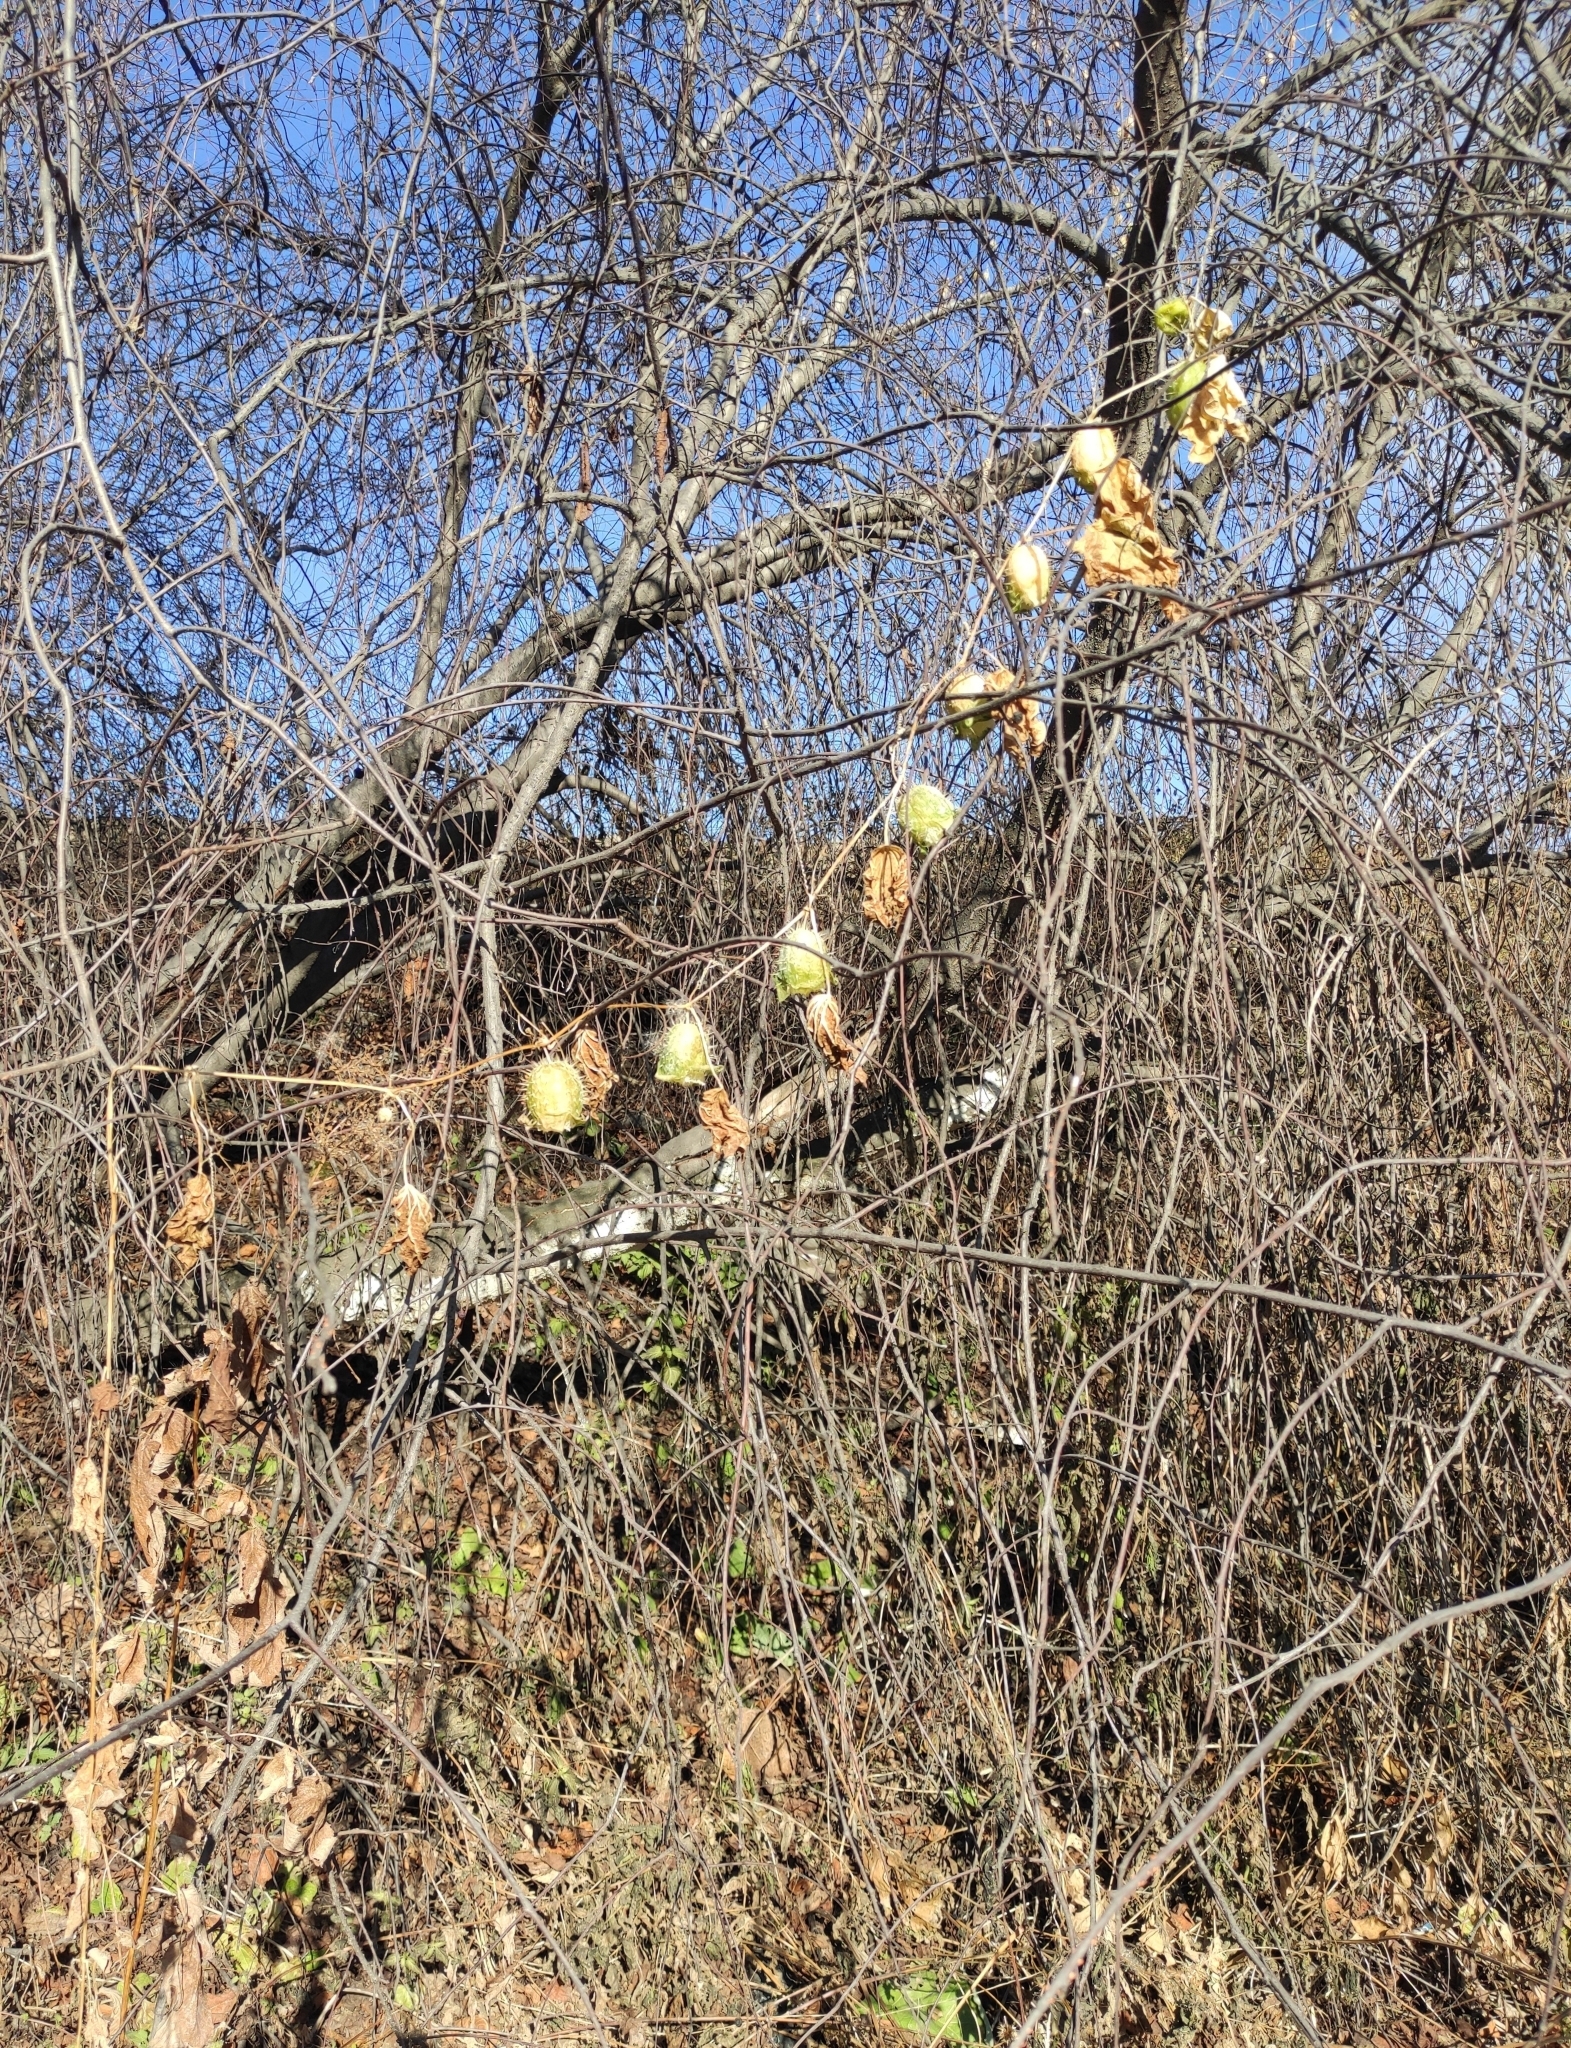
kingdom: Plantae
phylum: Tracheophyta
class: Magnoliopsida
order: Cucurbitales
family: Cucurbitaceae
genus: Echinocystis
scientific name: Echinocystis lobata
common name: Wild cucumber
